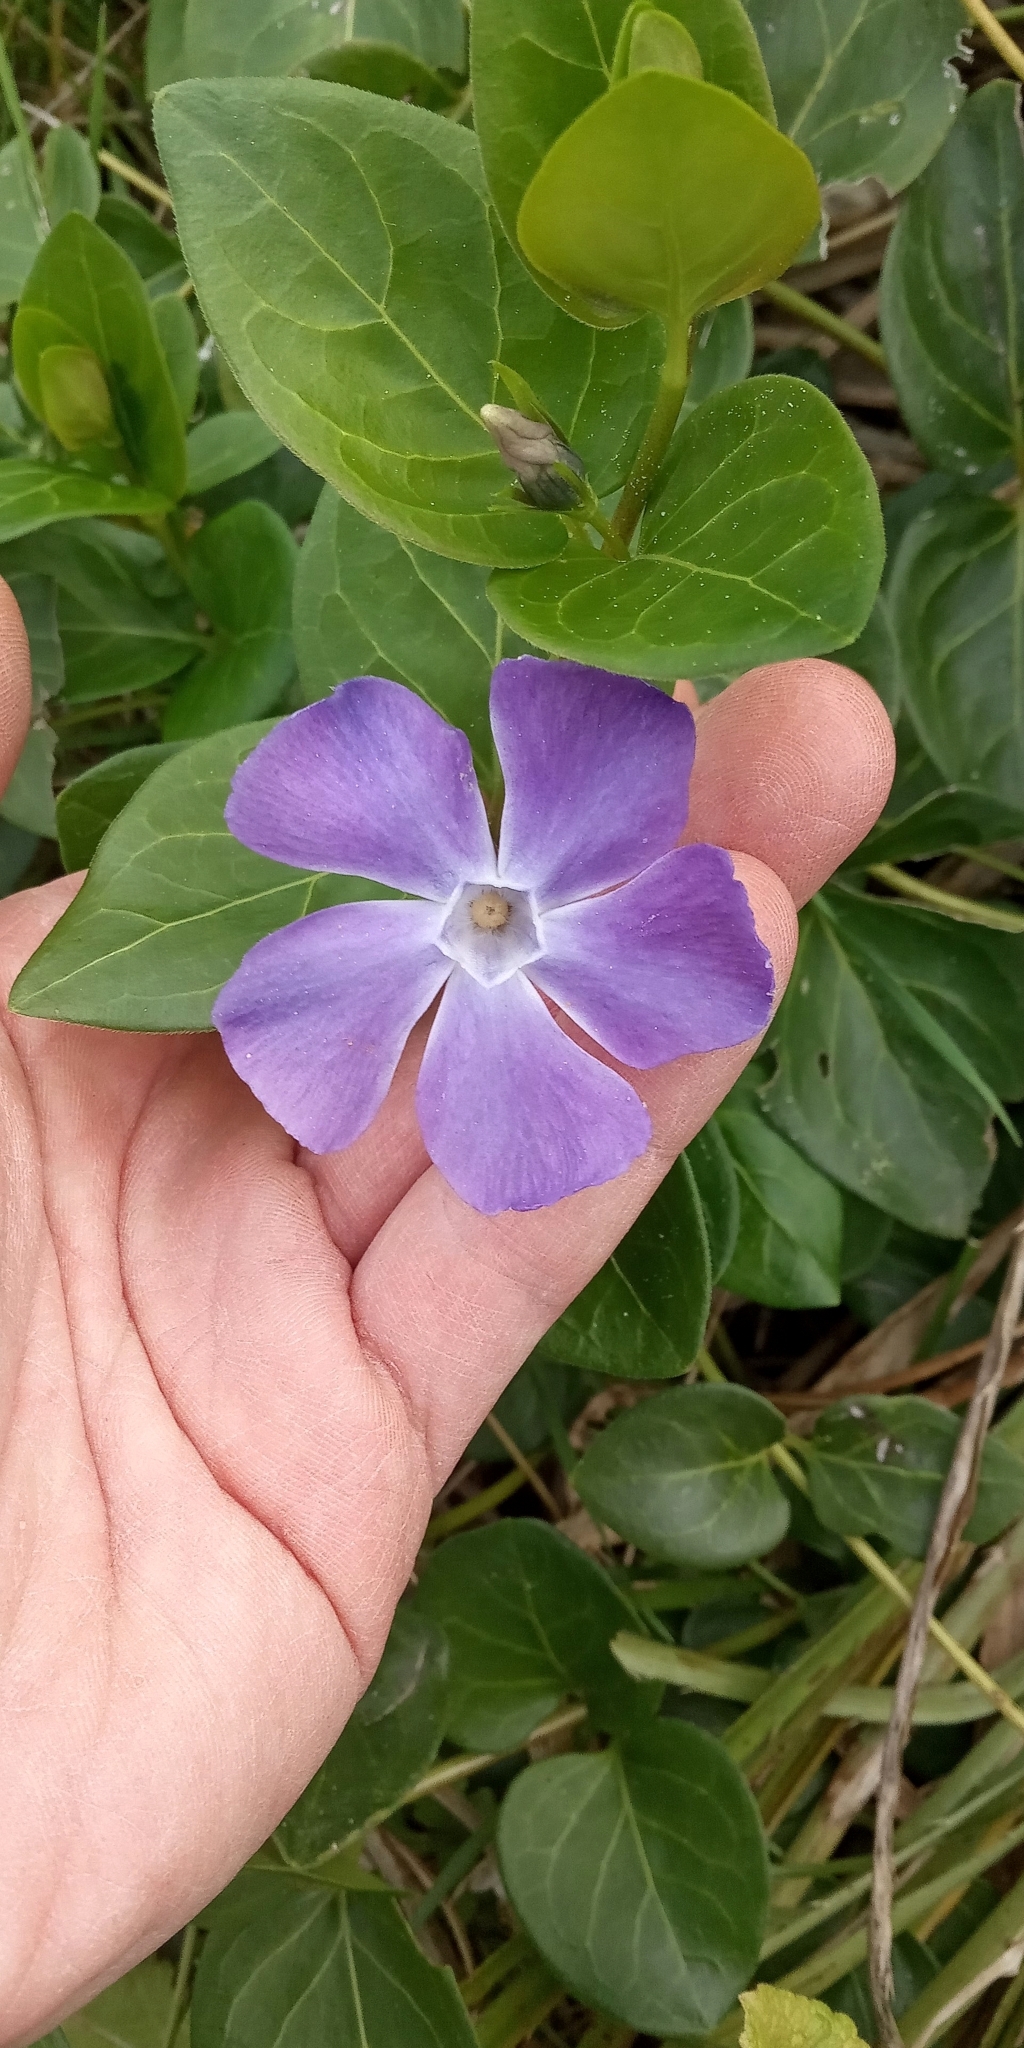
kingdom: Plantae
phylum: Tracheophyta
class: Magnoliopsida
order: Gentianales
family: Apocynaceae
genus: Vinca
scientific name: Vinca major
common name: Greater periwinkle
